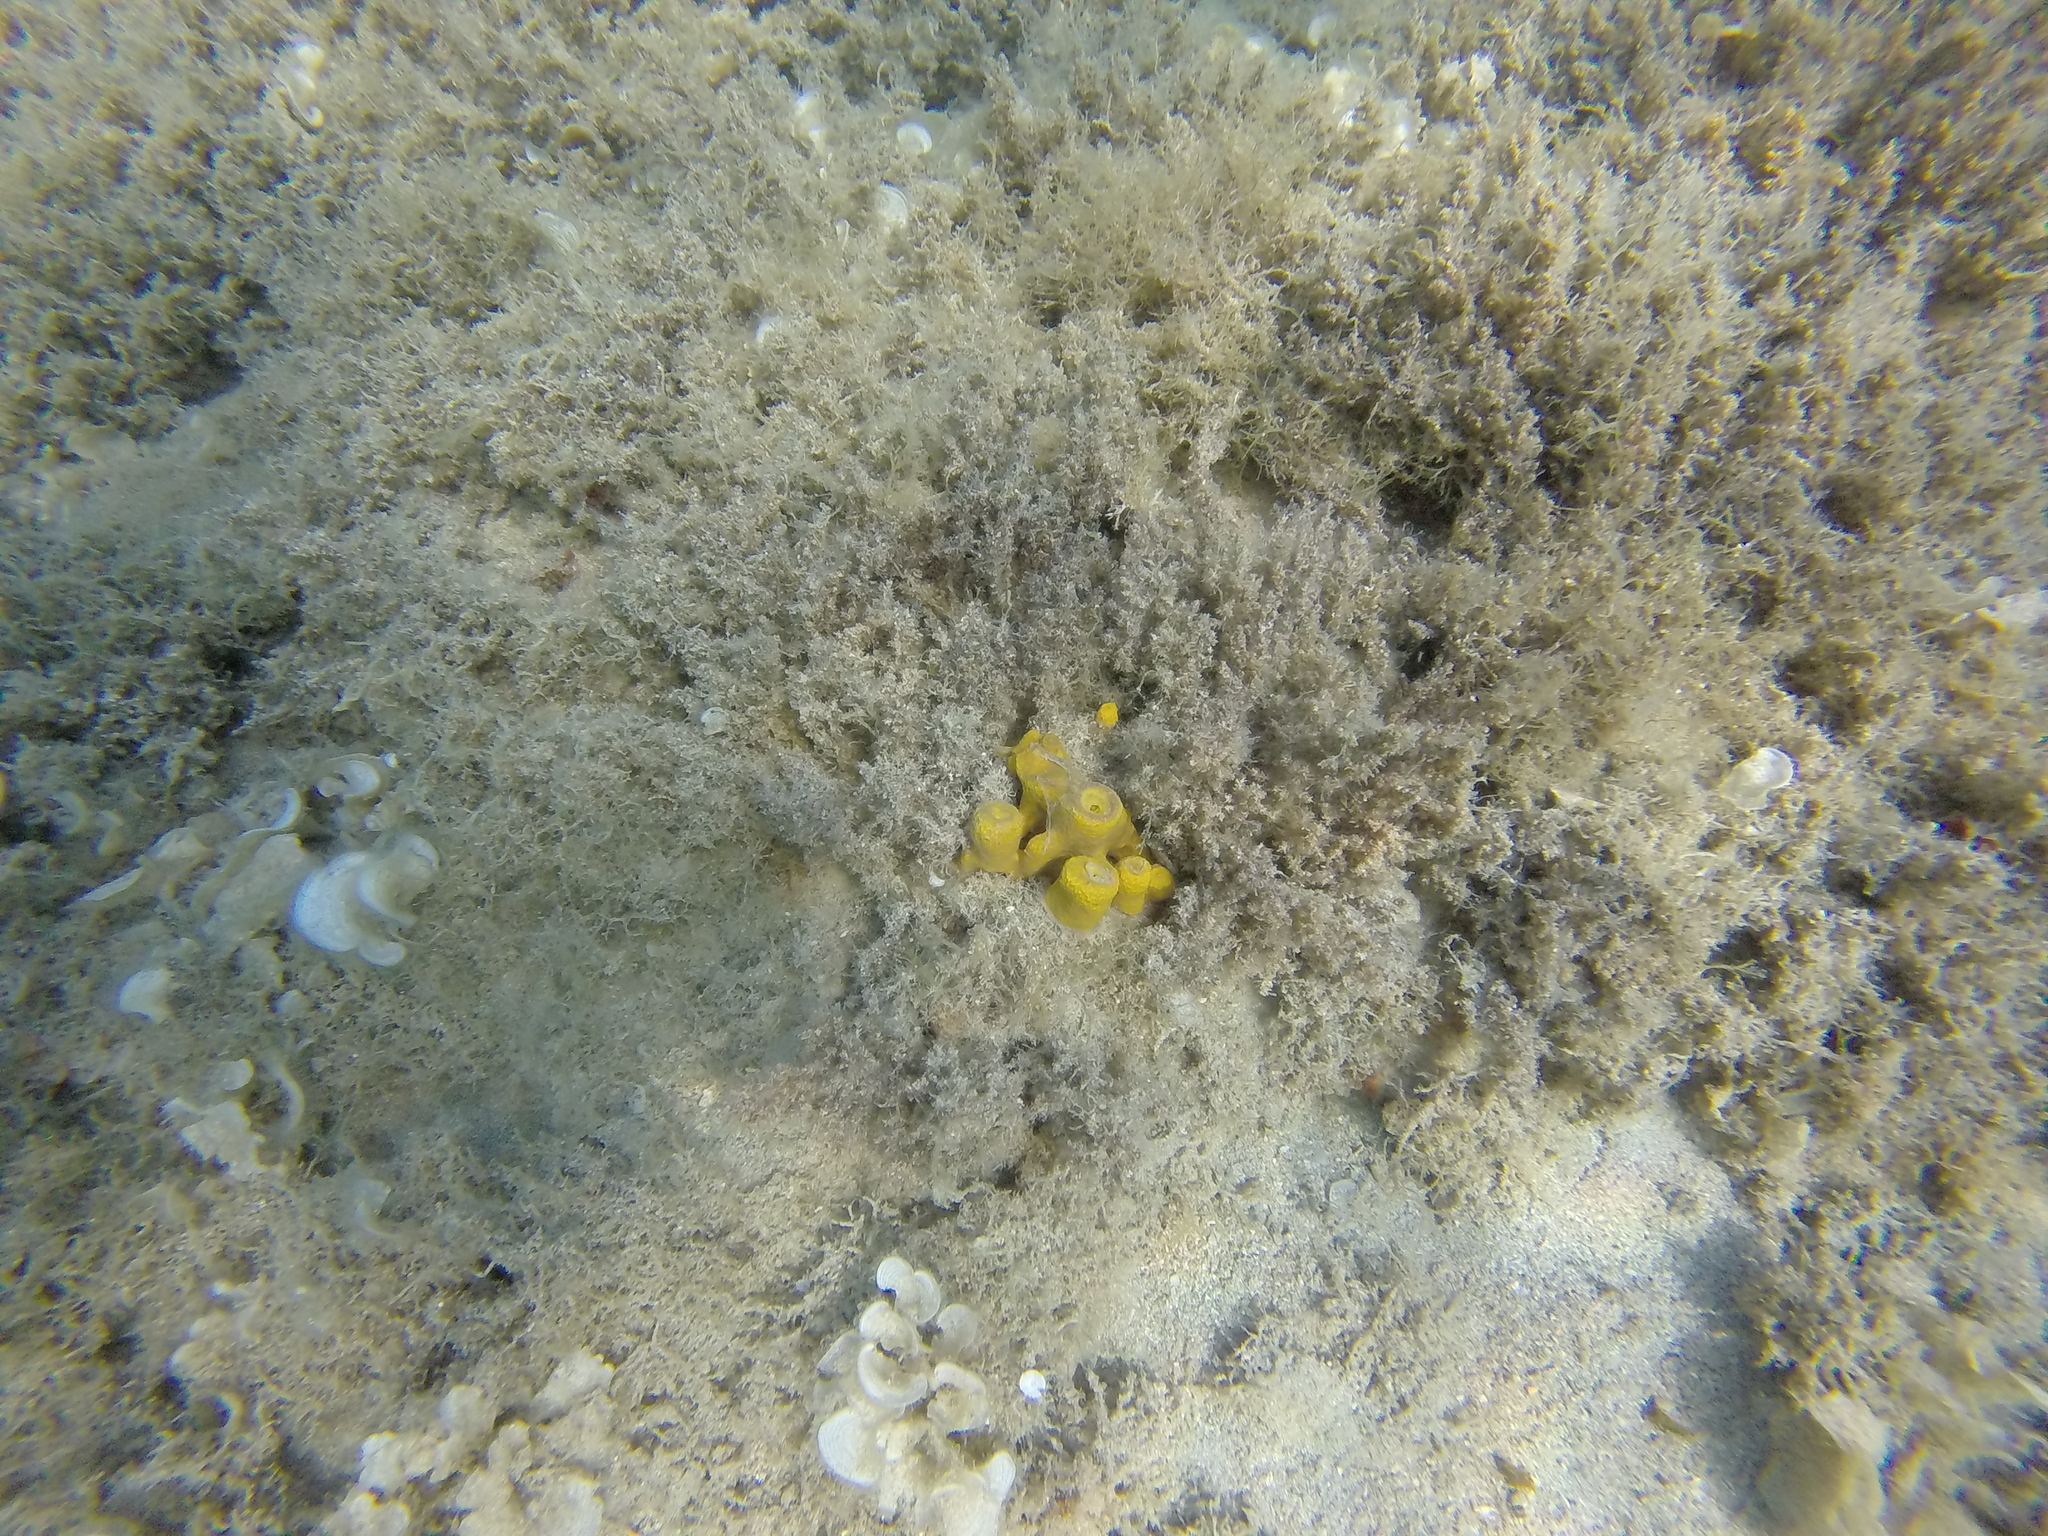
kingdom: Animalia
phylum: Porifera
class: Demospongiae
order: Verongiida
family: Aplysinidae
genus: Aplysina
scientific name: Aplysina aerophoba
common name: Aureate sponge
